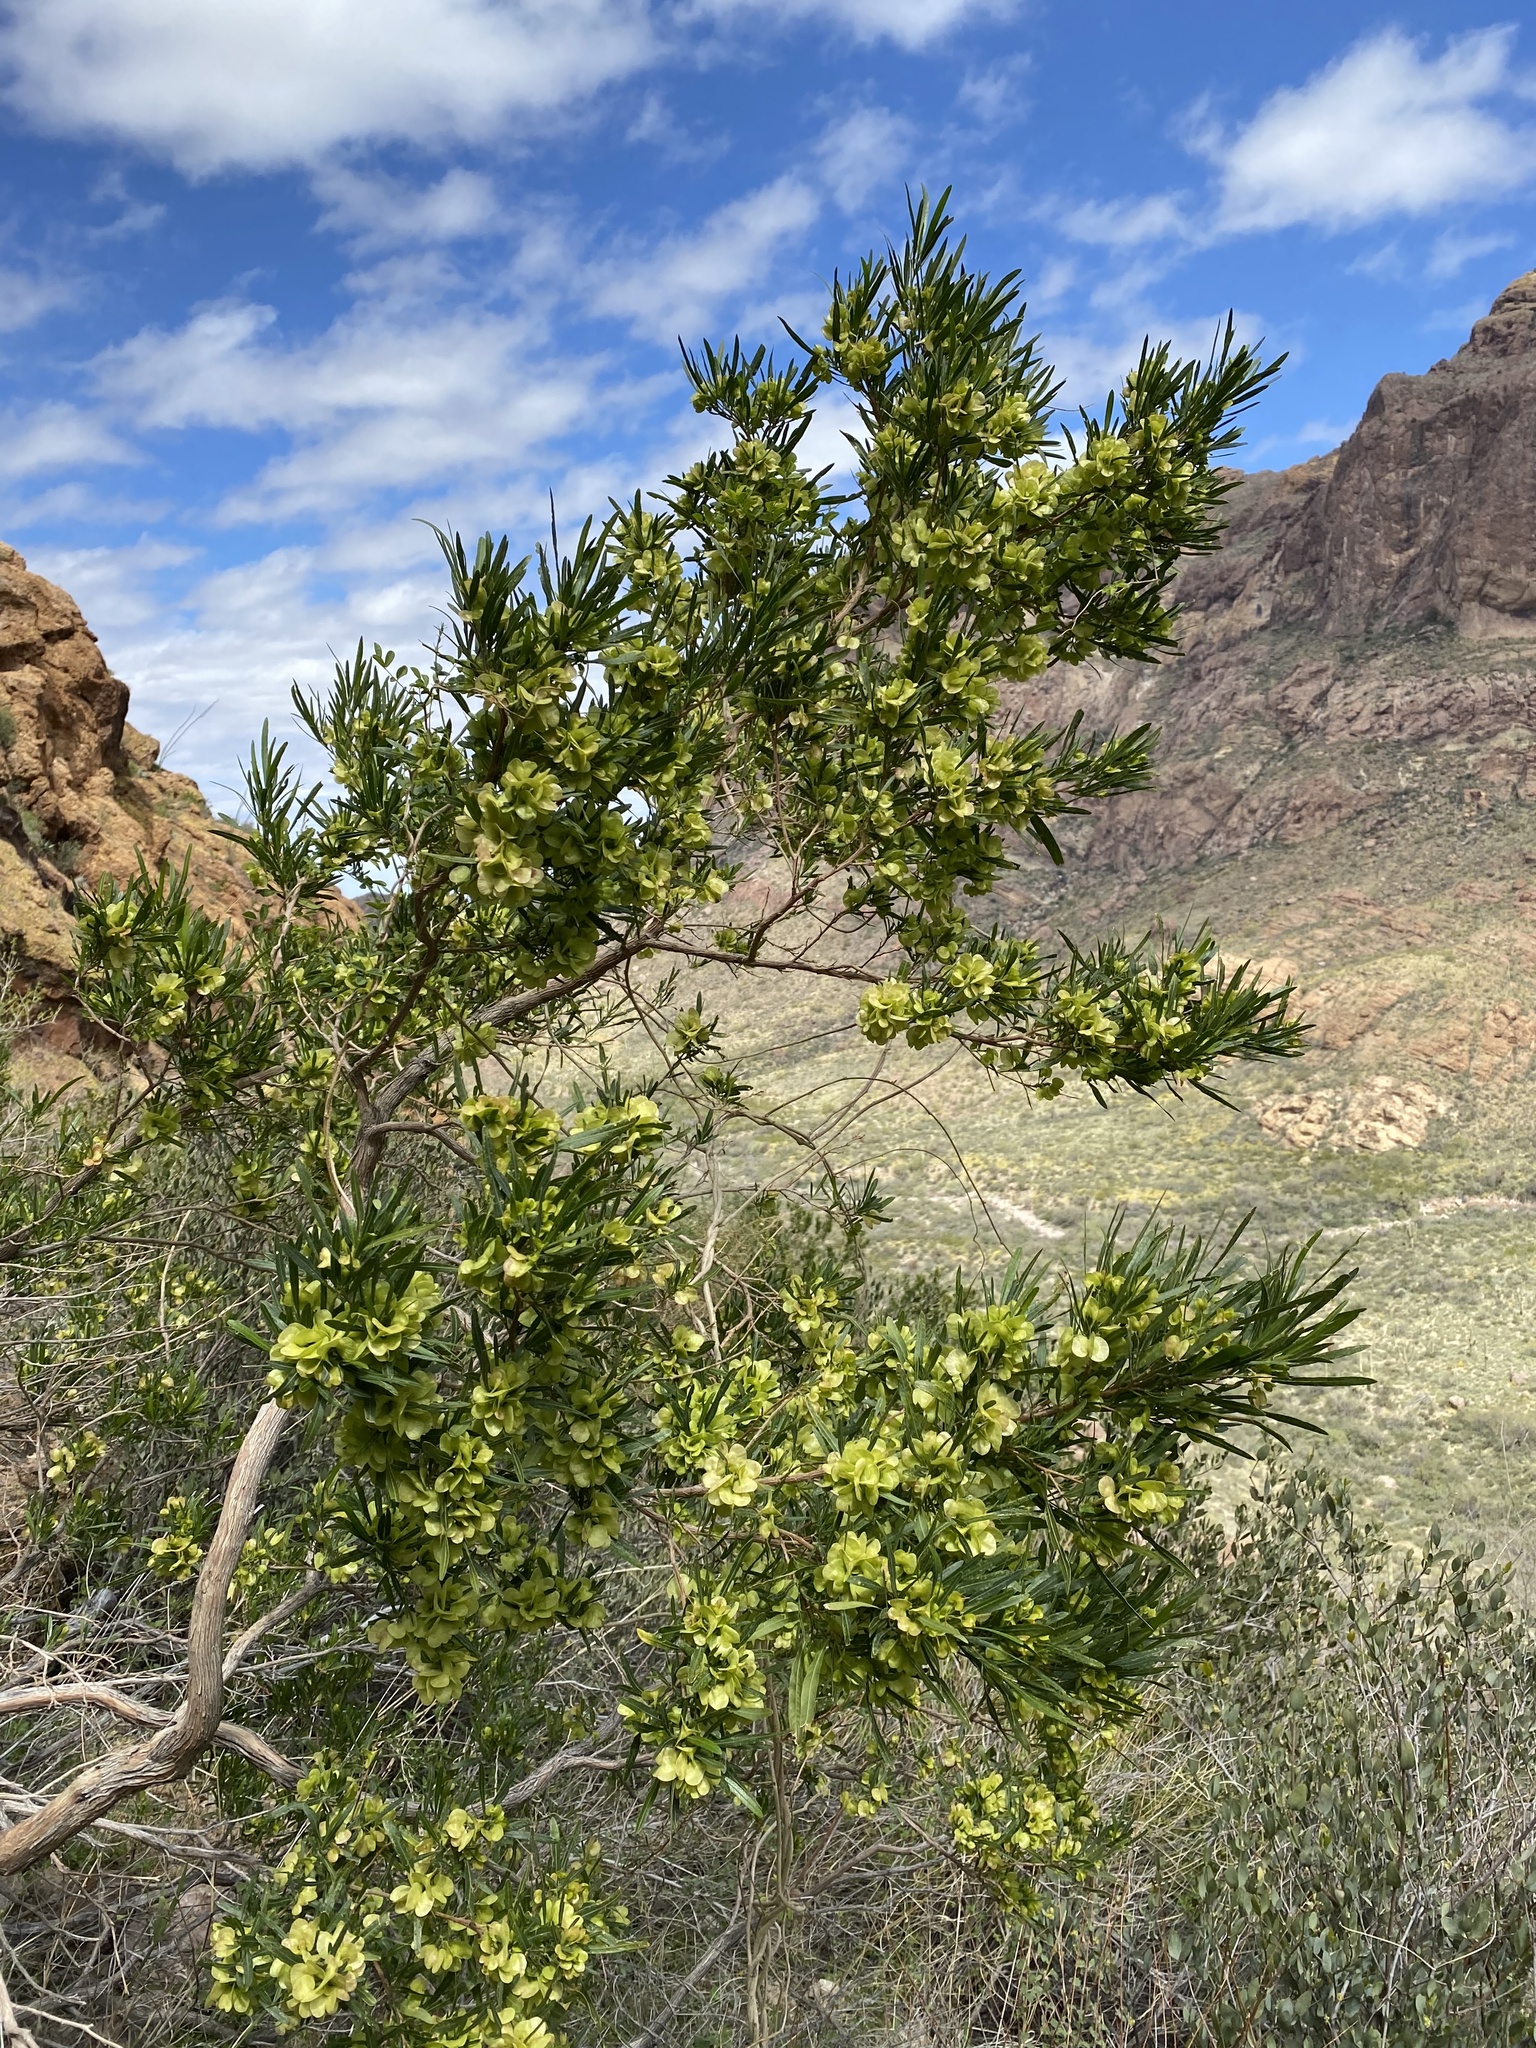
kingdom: Plantae
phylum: Tracheophyta
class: Magnoliopsida
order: Sapindales
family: Sapindaceae
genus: Dodonaea
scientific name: Dodonaea viscosa
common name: Hopbush
